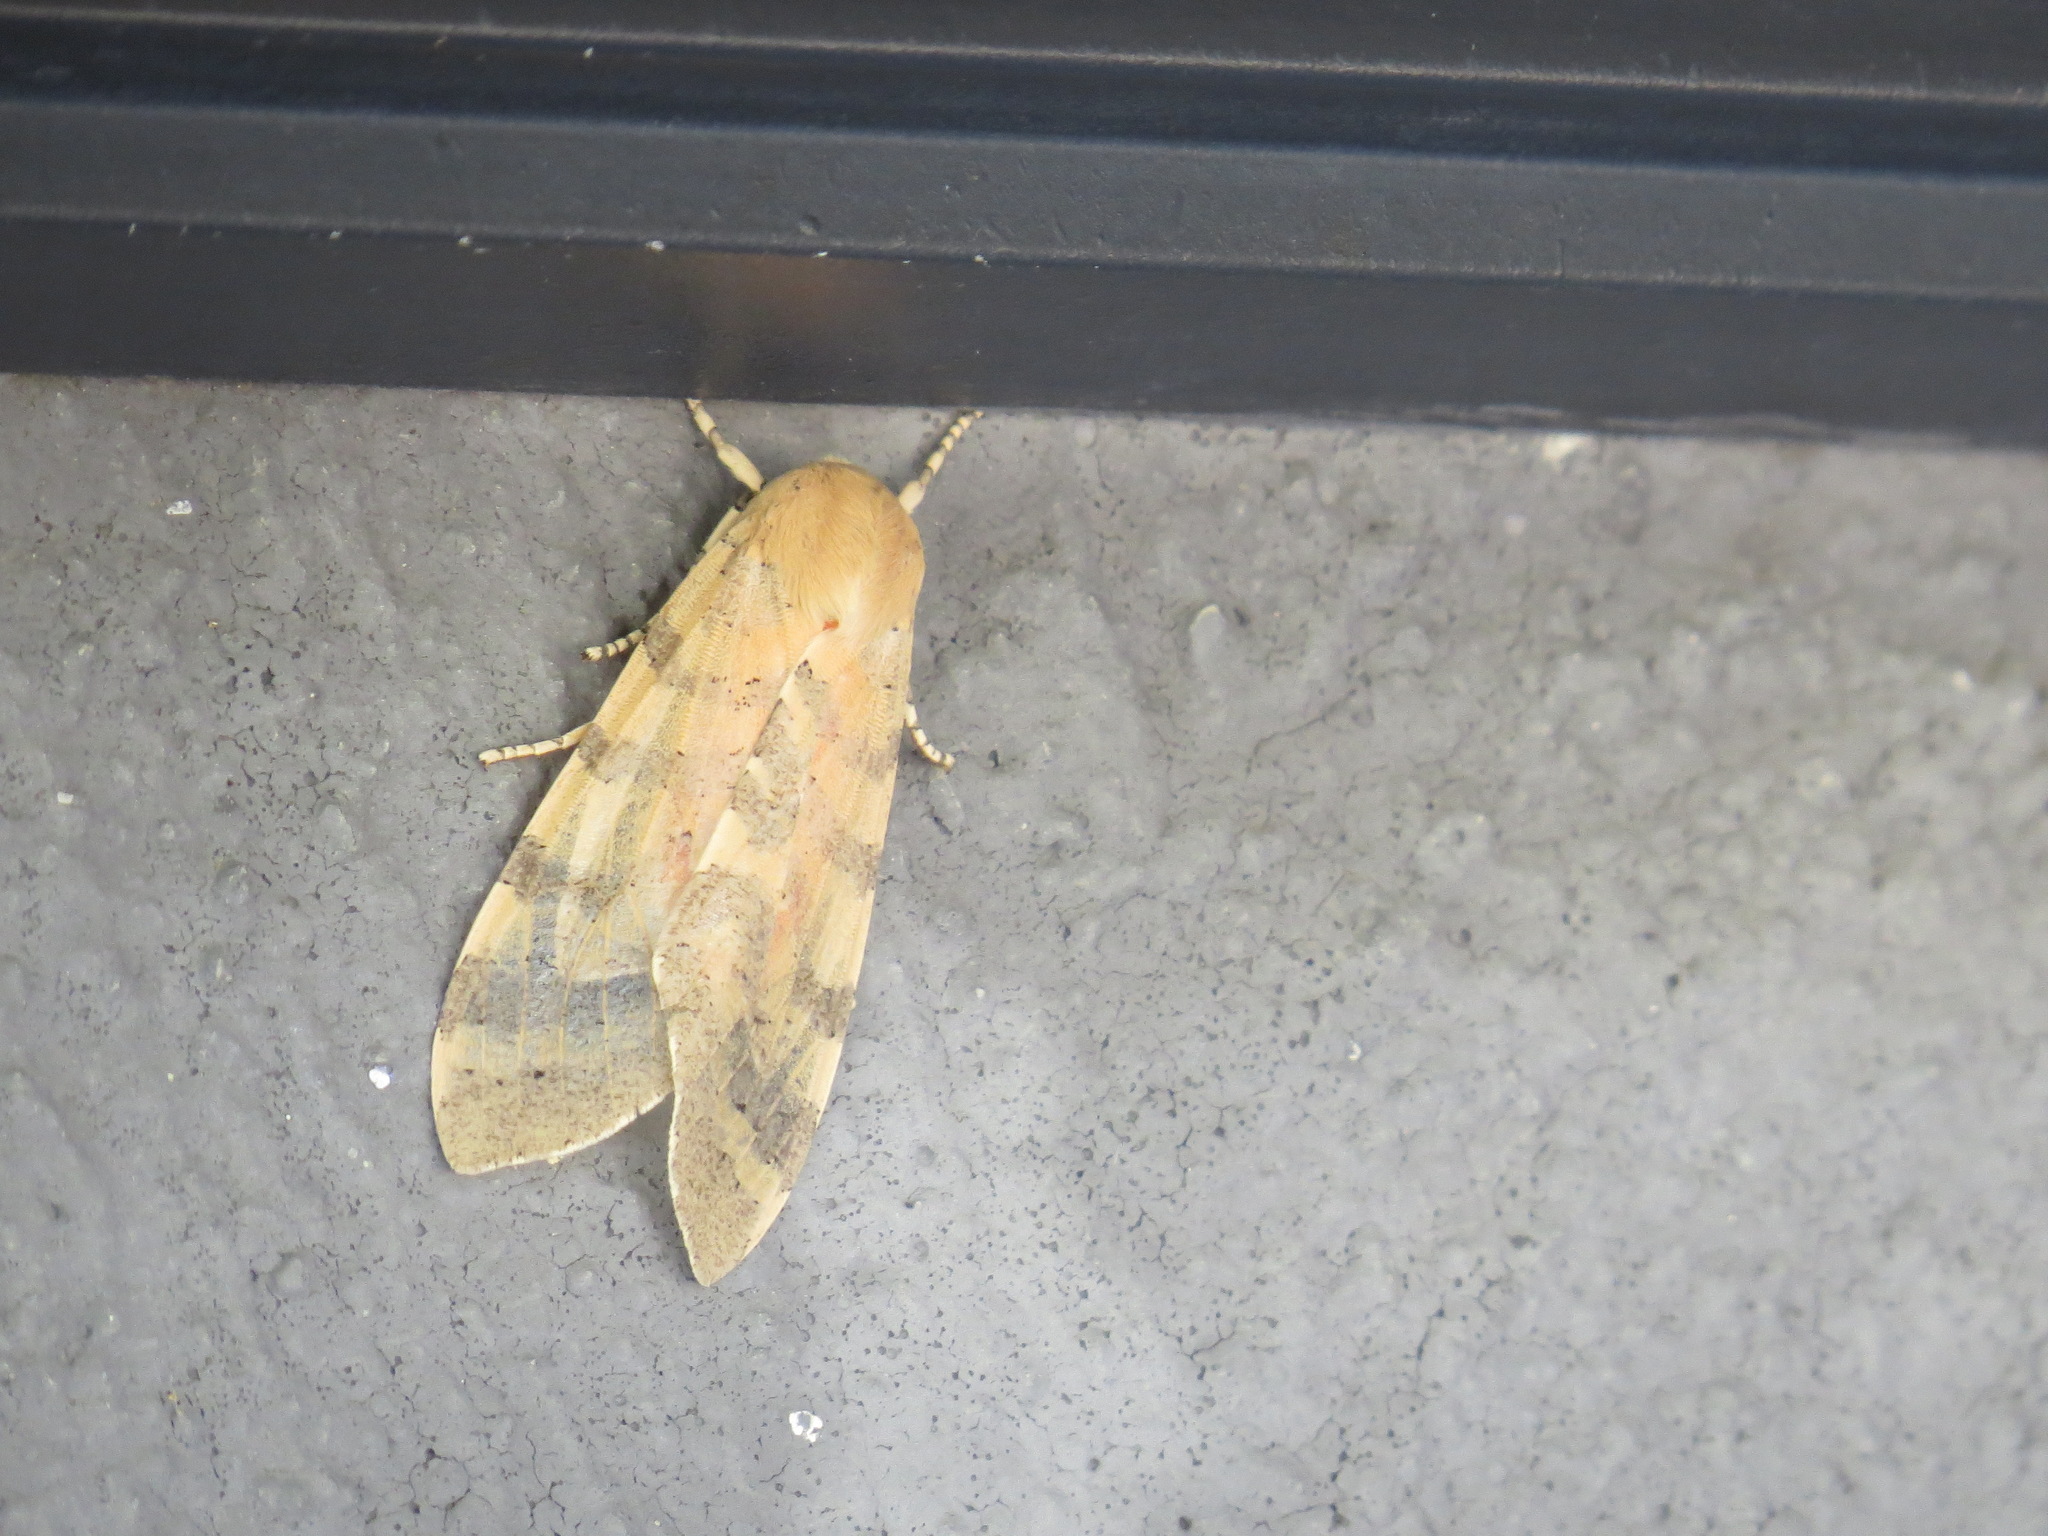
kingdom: Animalia
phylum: Arthropoda
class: Insecta
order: Lepidoptera
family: Erebidae
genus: Hemihyalea
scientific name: Hemihyalea edwardsii
